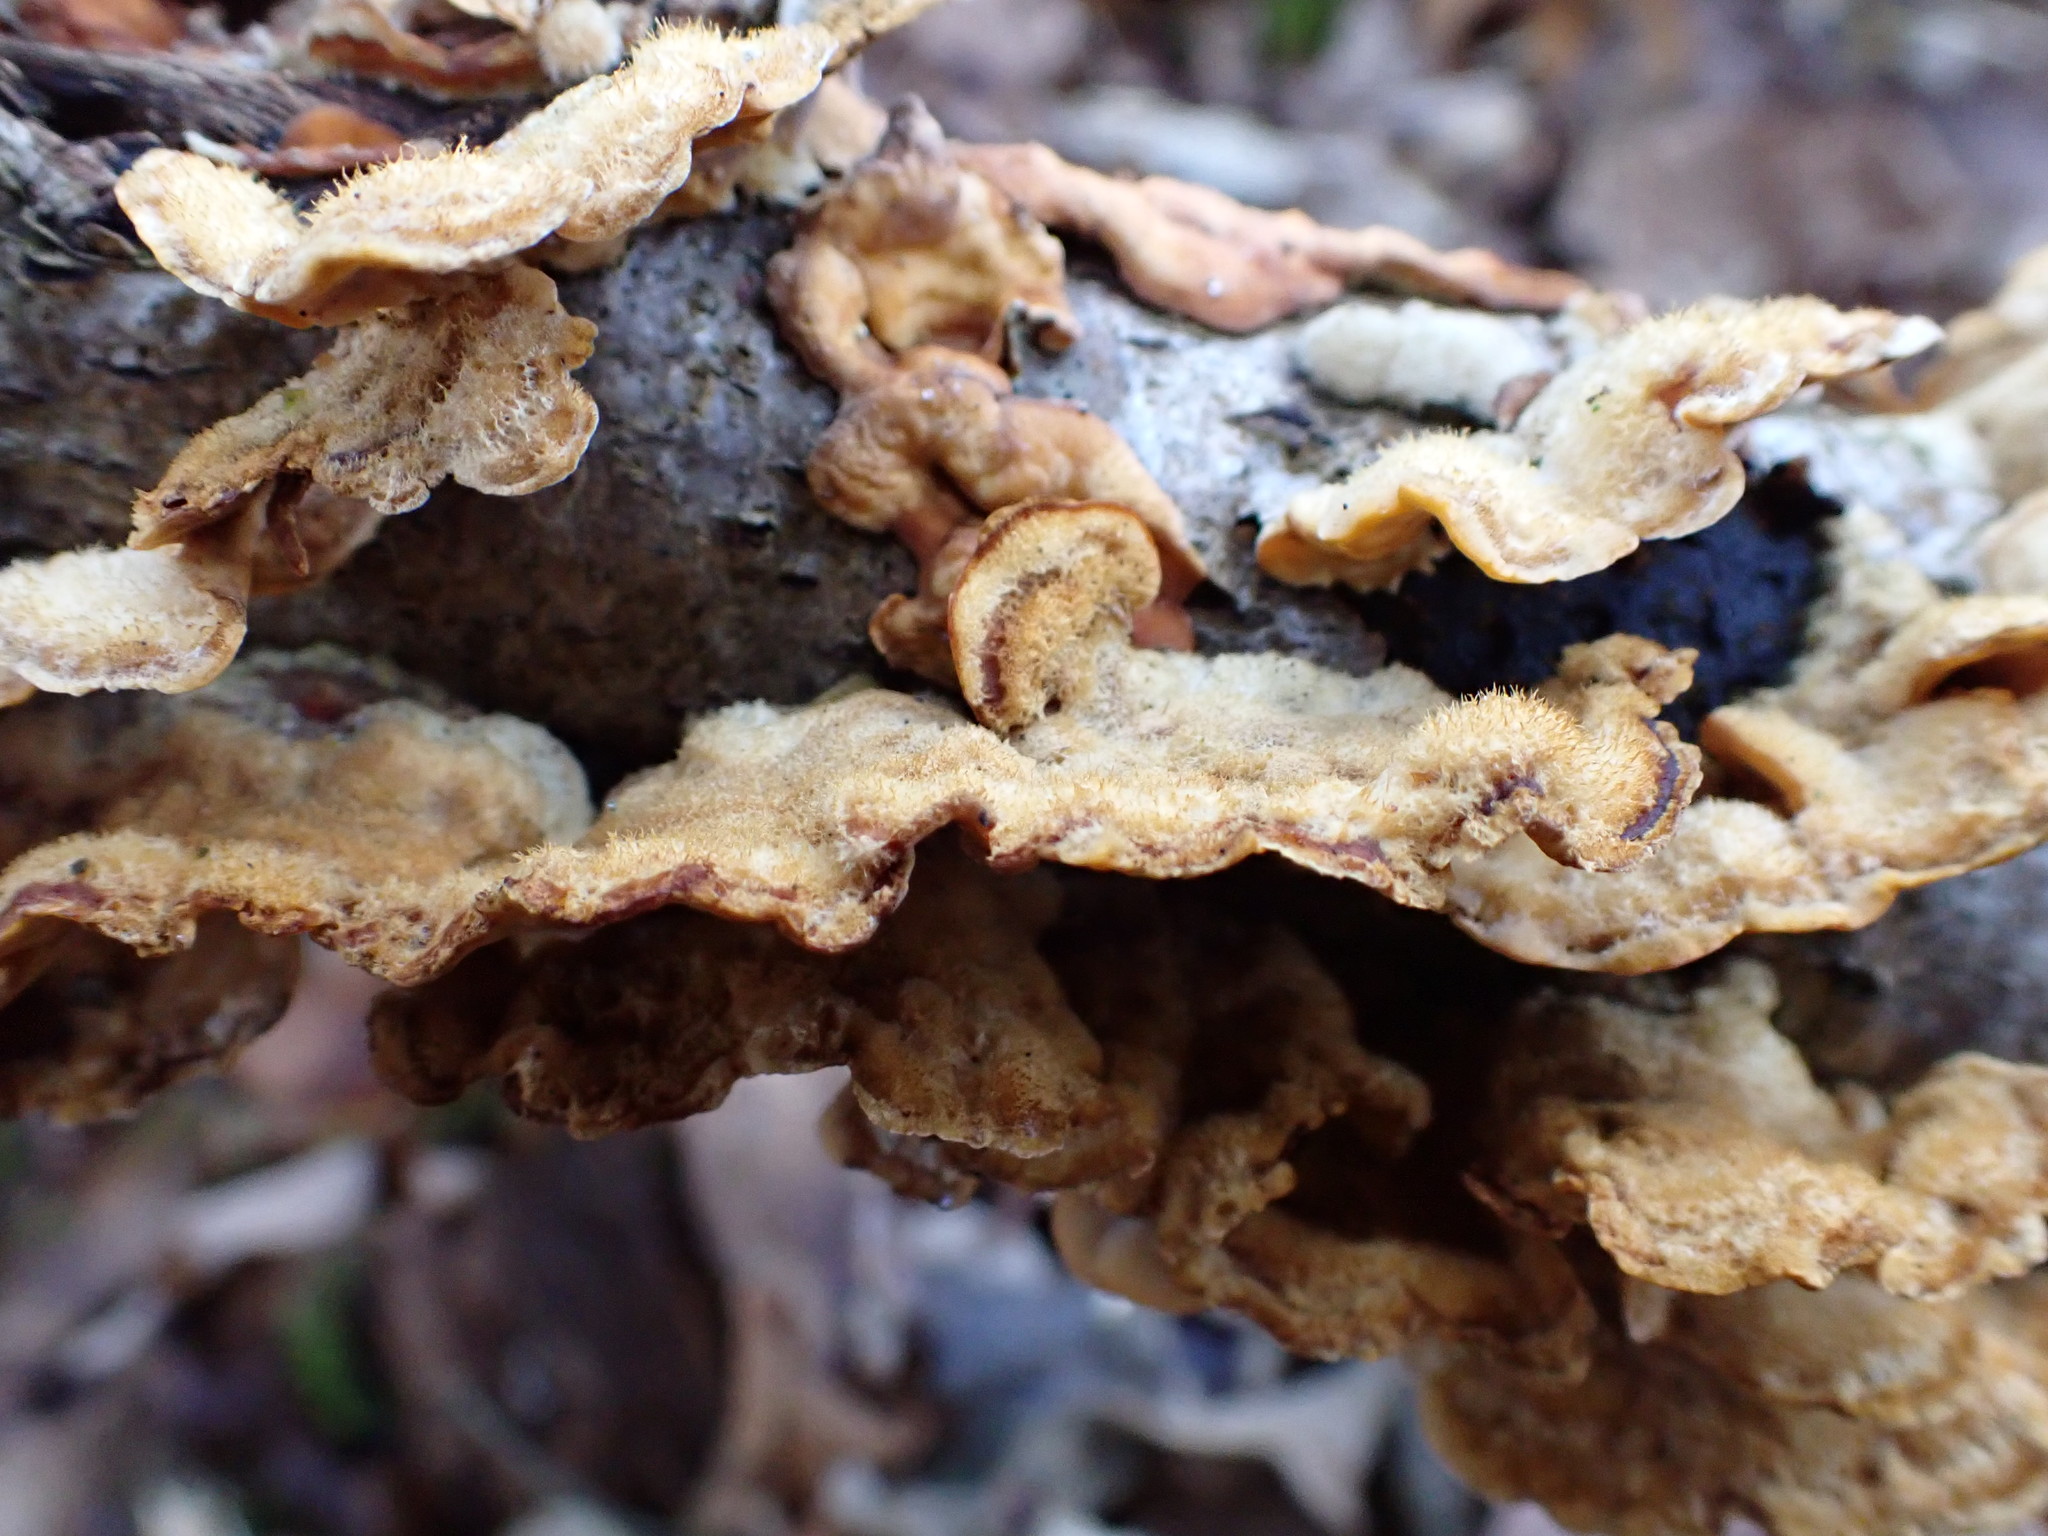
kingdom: Fungi
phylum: Basidiomycota
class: Agaricomycetes
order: Russulales
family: Stereaceae
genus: Stereum
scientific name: Stereum hirsutum
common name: Hairy curtain crust
